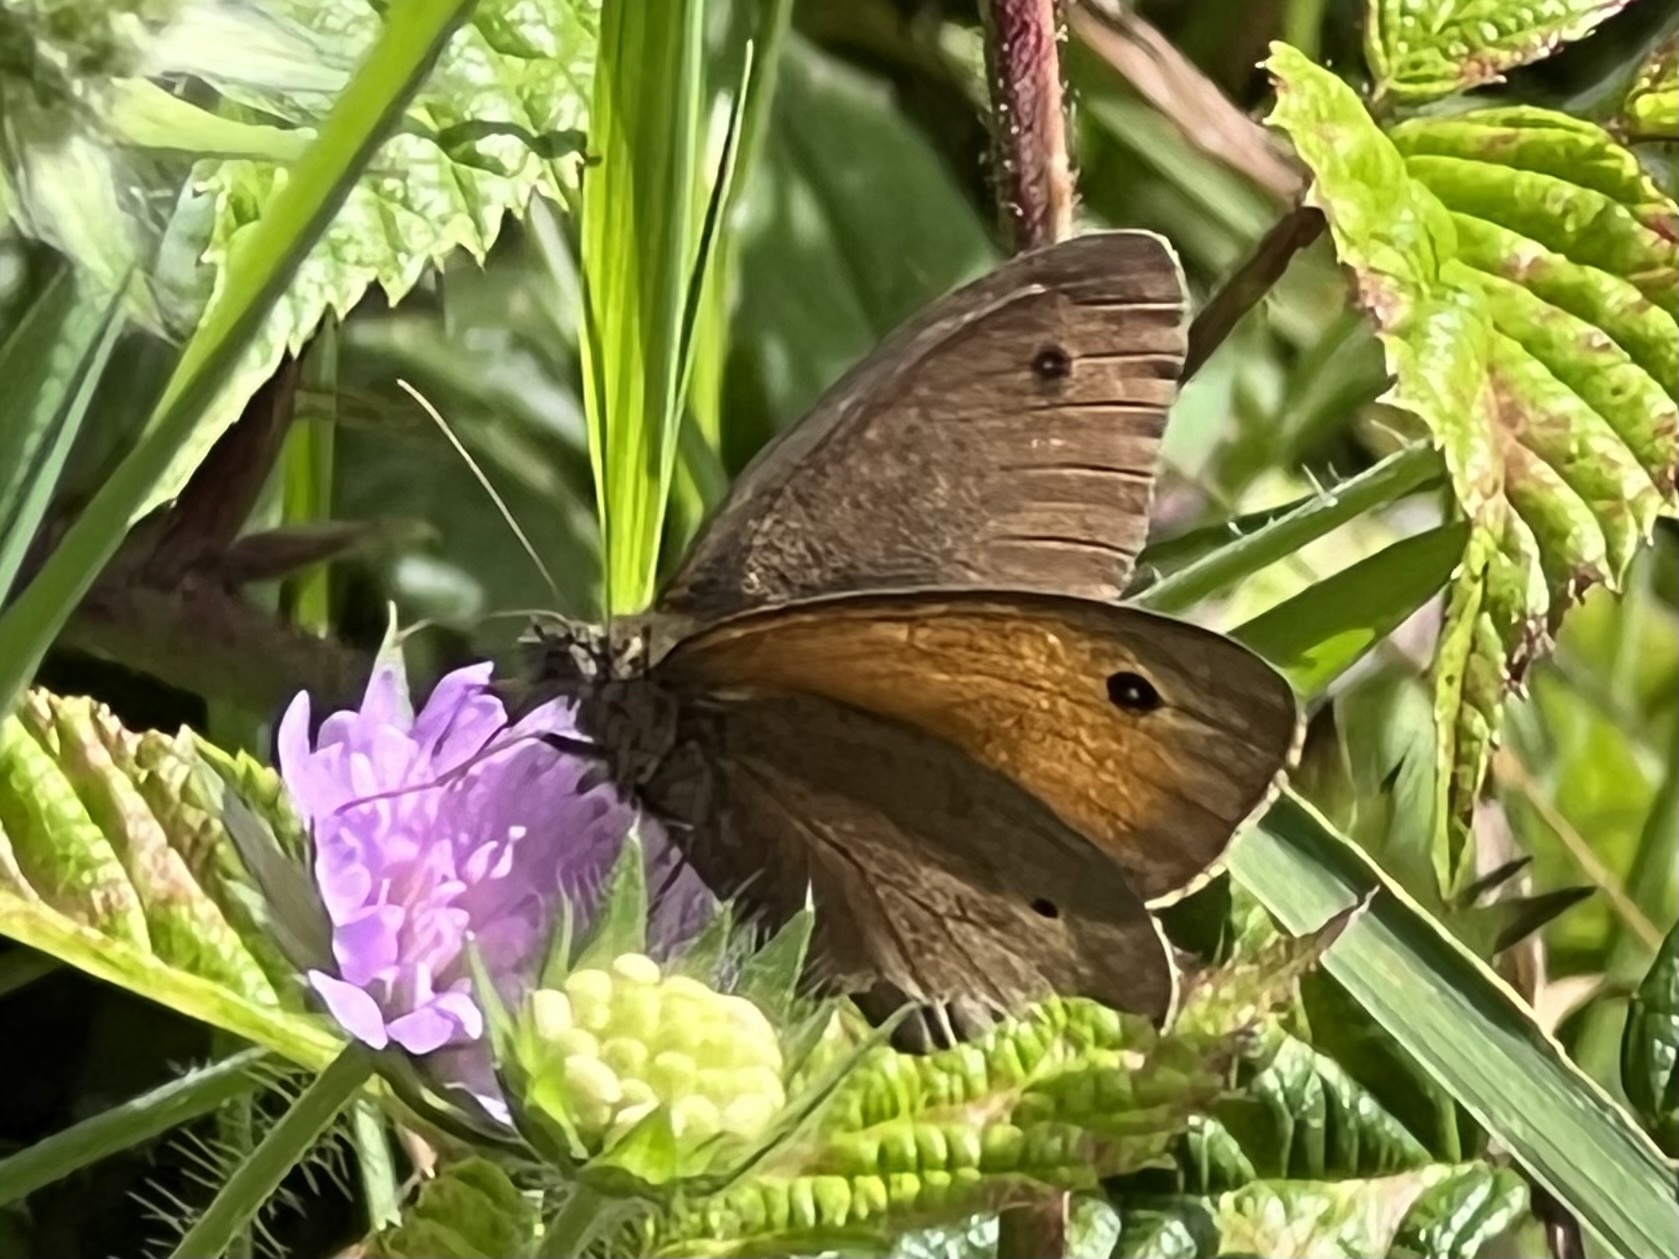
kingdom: Animalia
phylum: Arthropoda
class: Insecta
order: Lepidoptera
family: Nymphalidae
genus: Maniola
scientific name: Maniola jurtina
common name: Meadow brown
